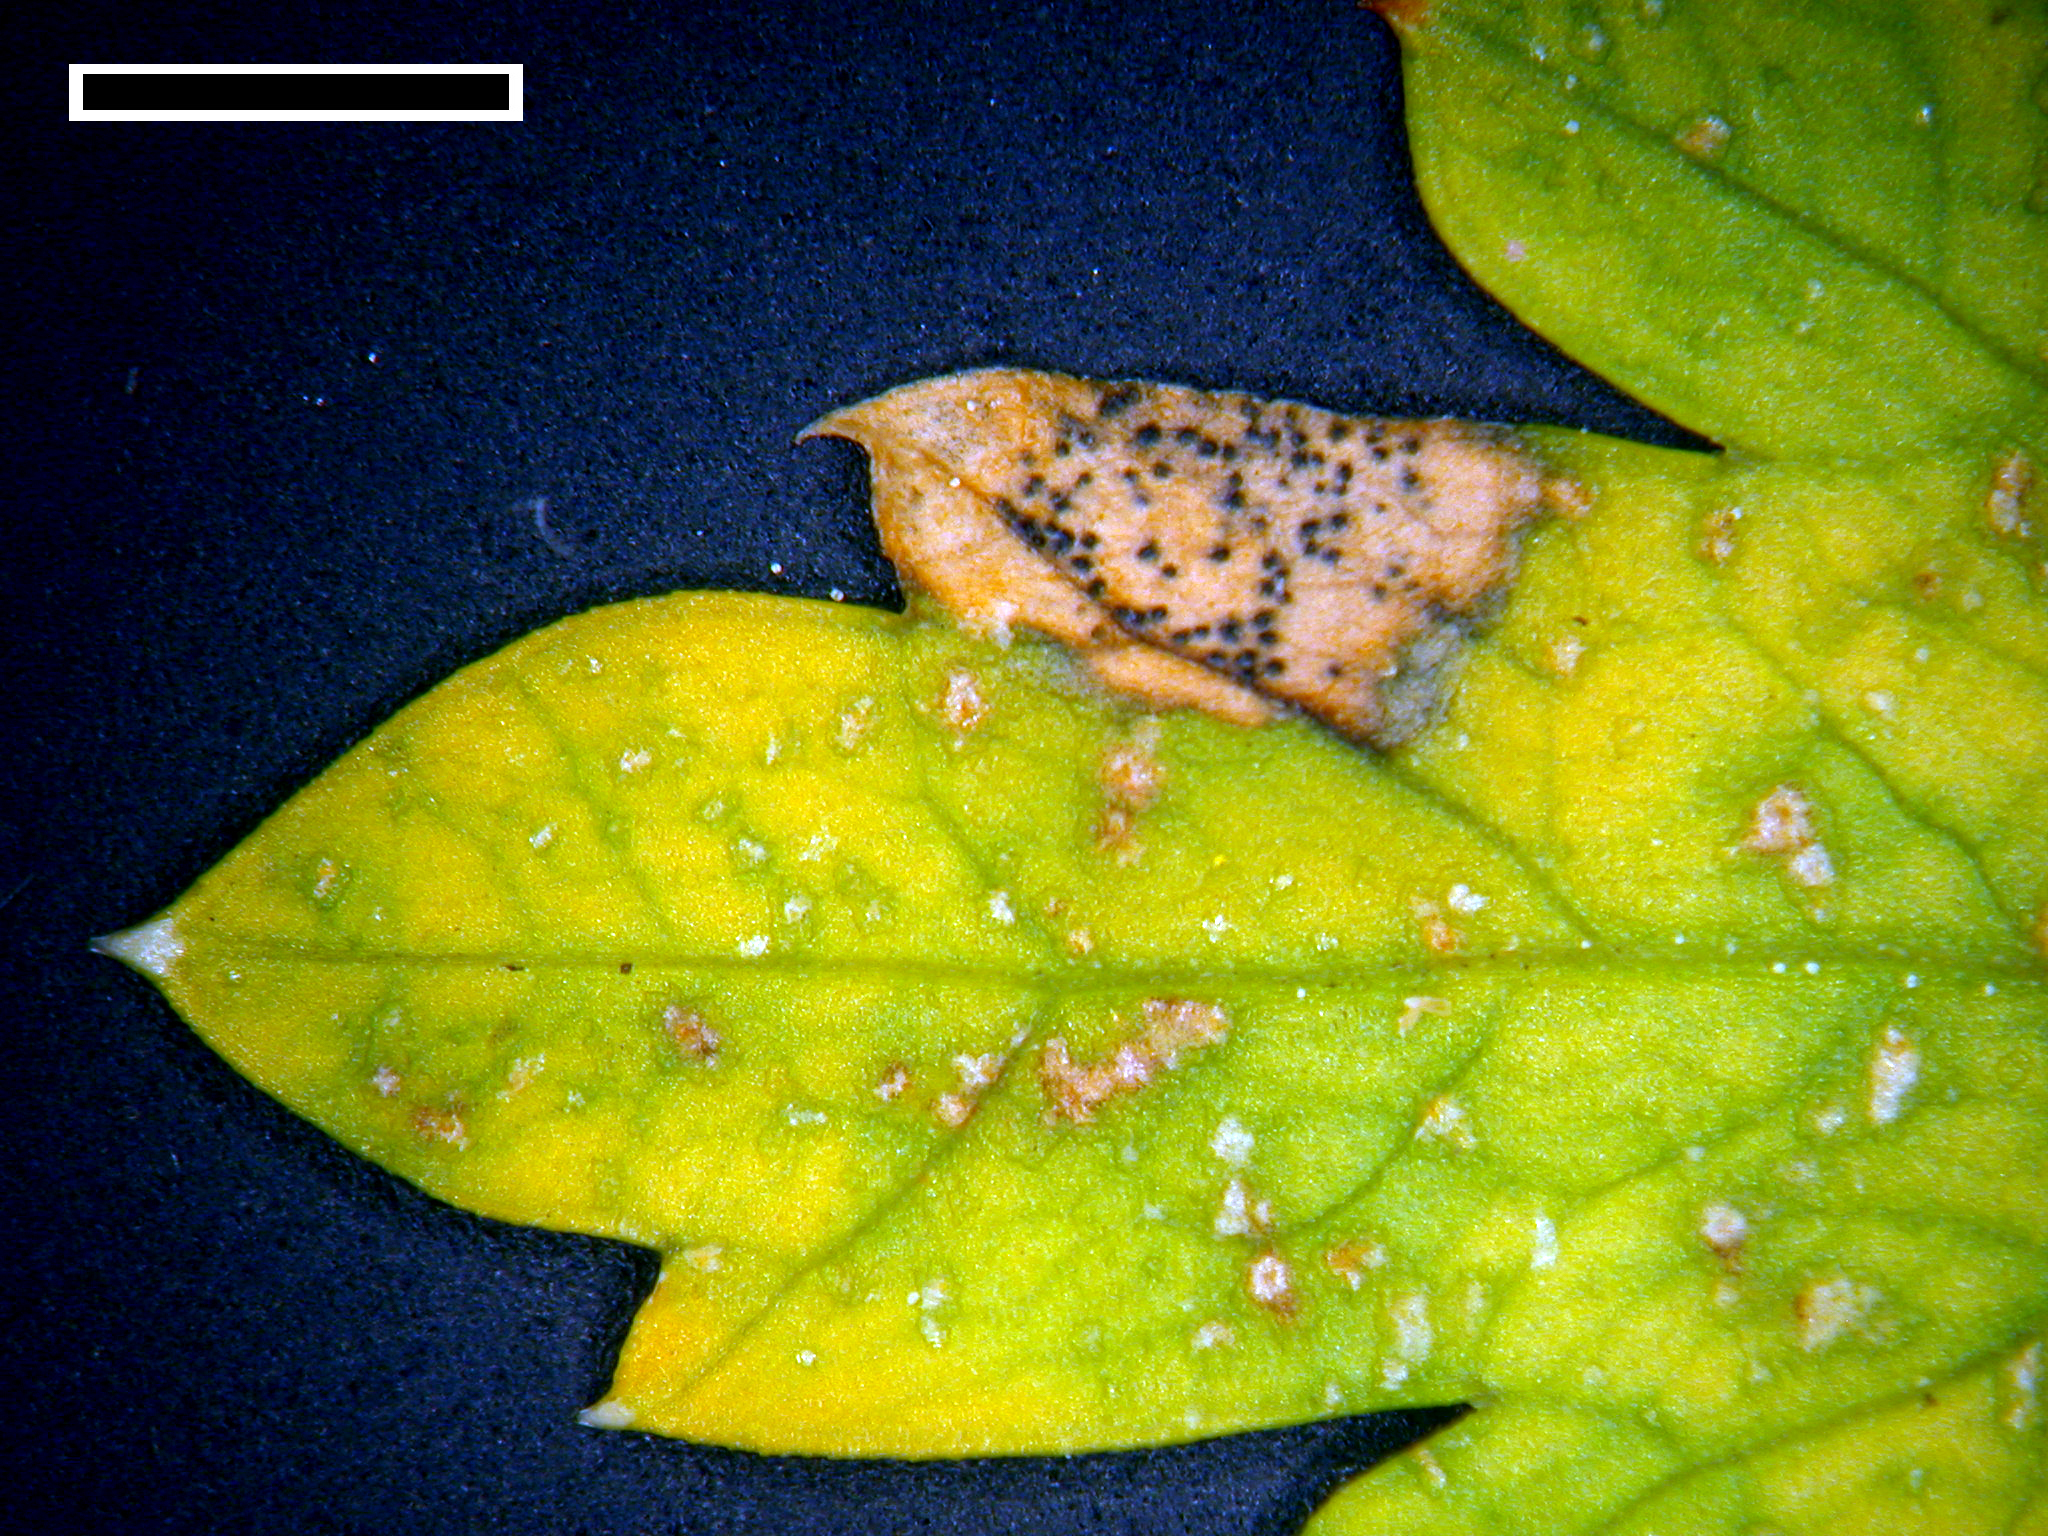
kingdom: Fungi
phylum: Ascomycota
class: Dothideomycetes
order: Mycosphaerellales
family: Mycosphaerellaceae
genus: Septoria
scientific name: Septoria petroselini
